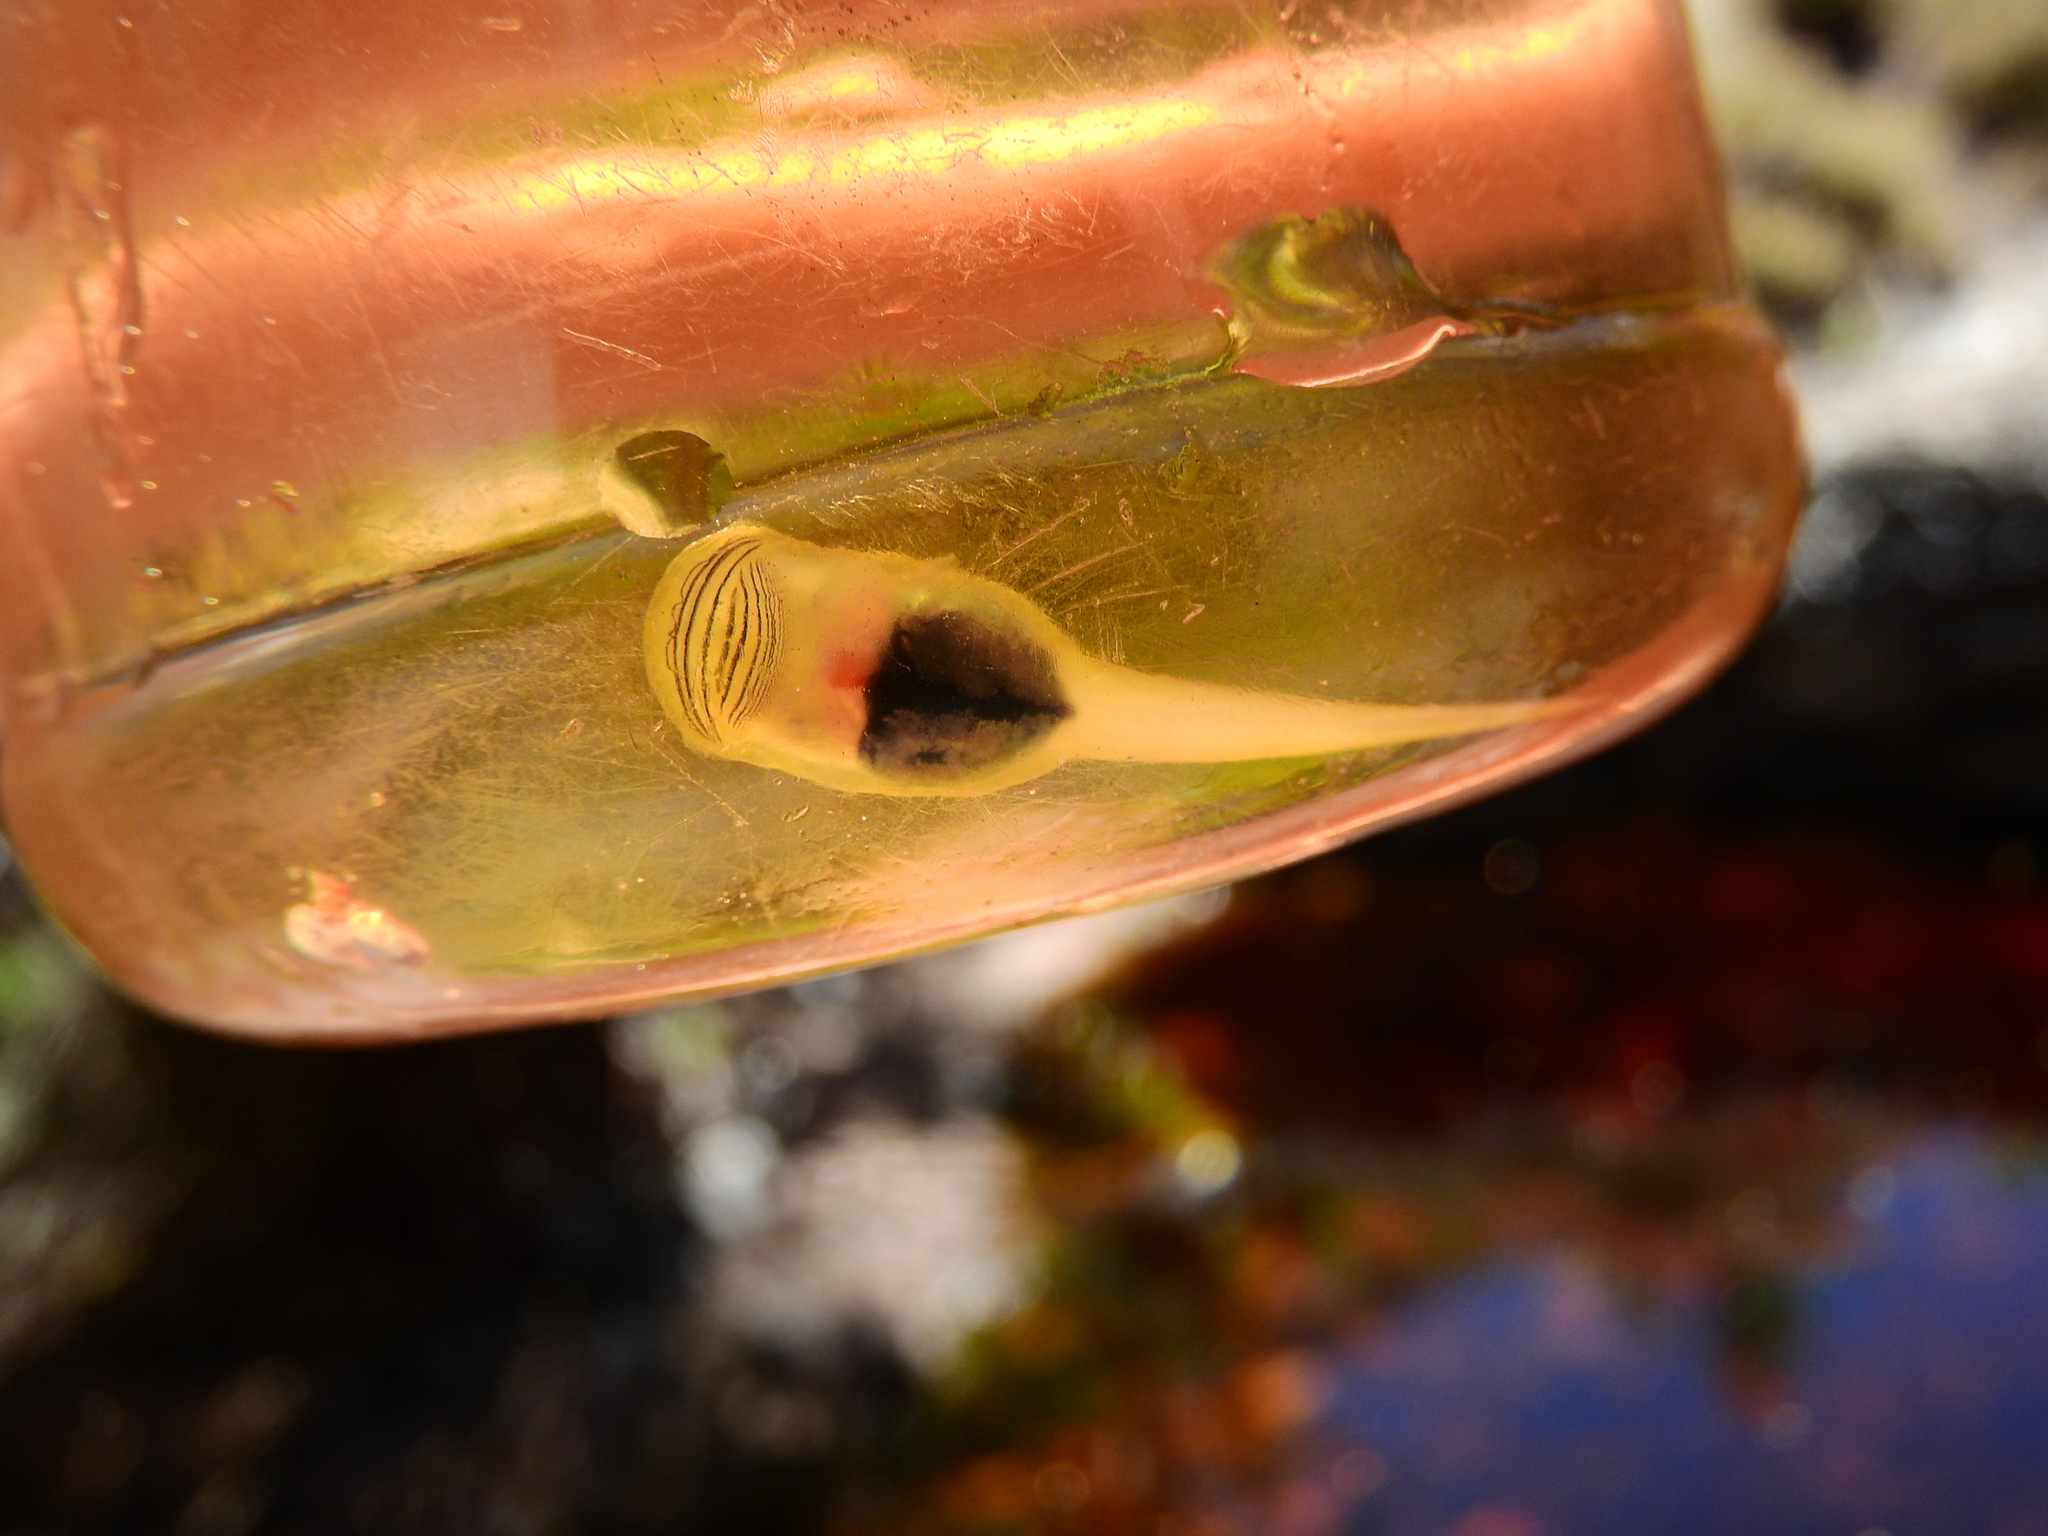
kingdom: Animalia
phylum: Chordata
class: Amphibia
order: Anura
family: Heleophrynidae
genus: Heleophryne
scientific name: Heleophryne purcelli
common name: Purcell's ghost frog
